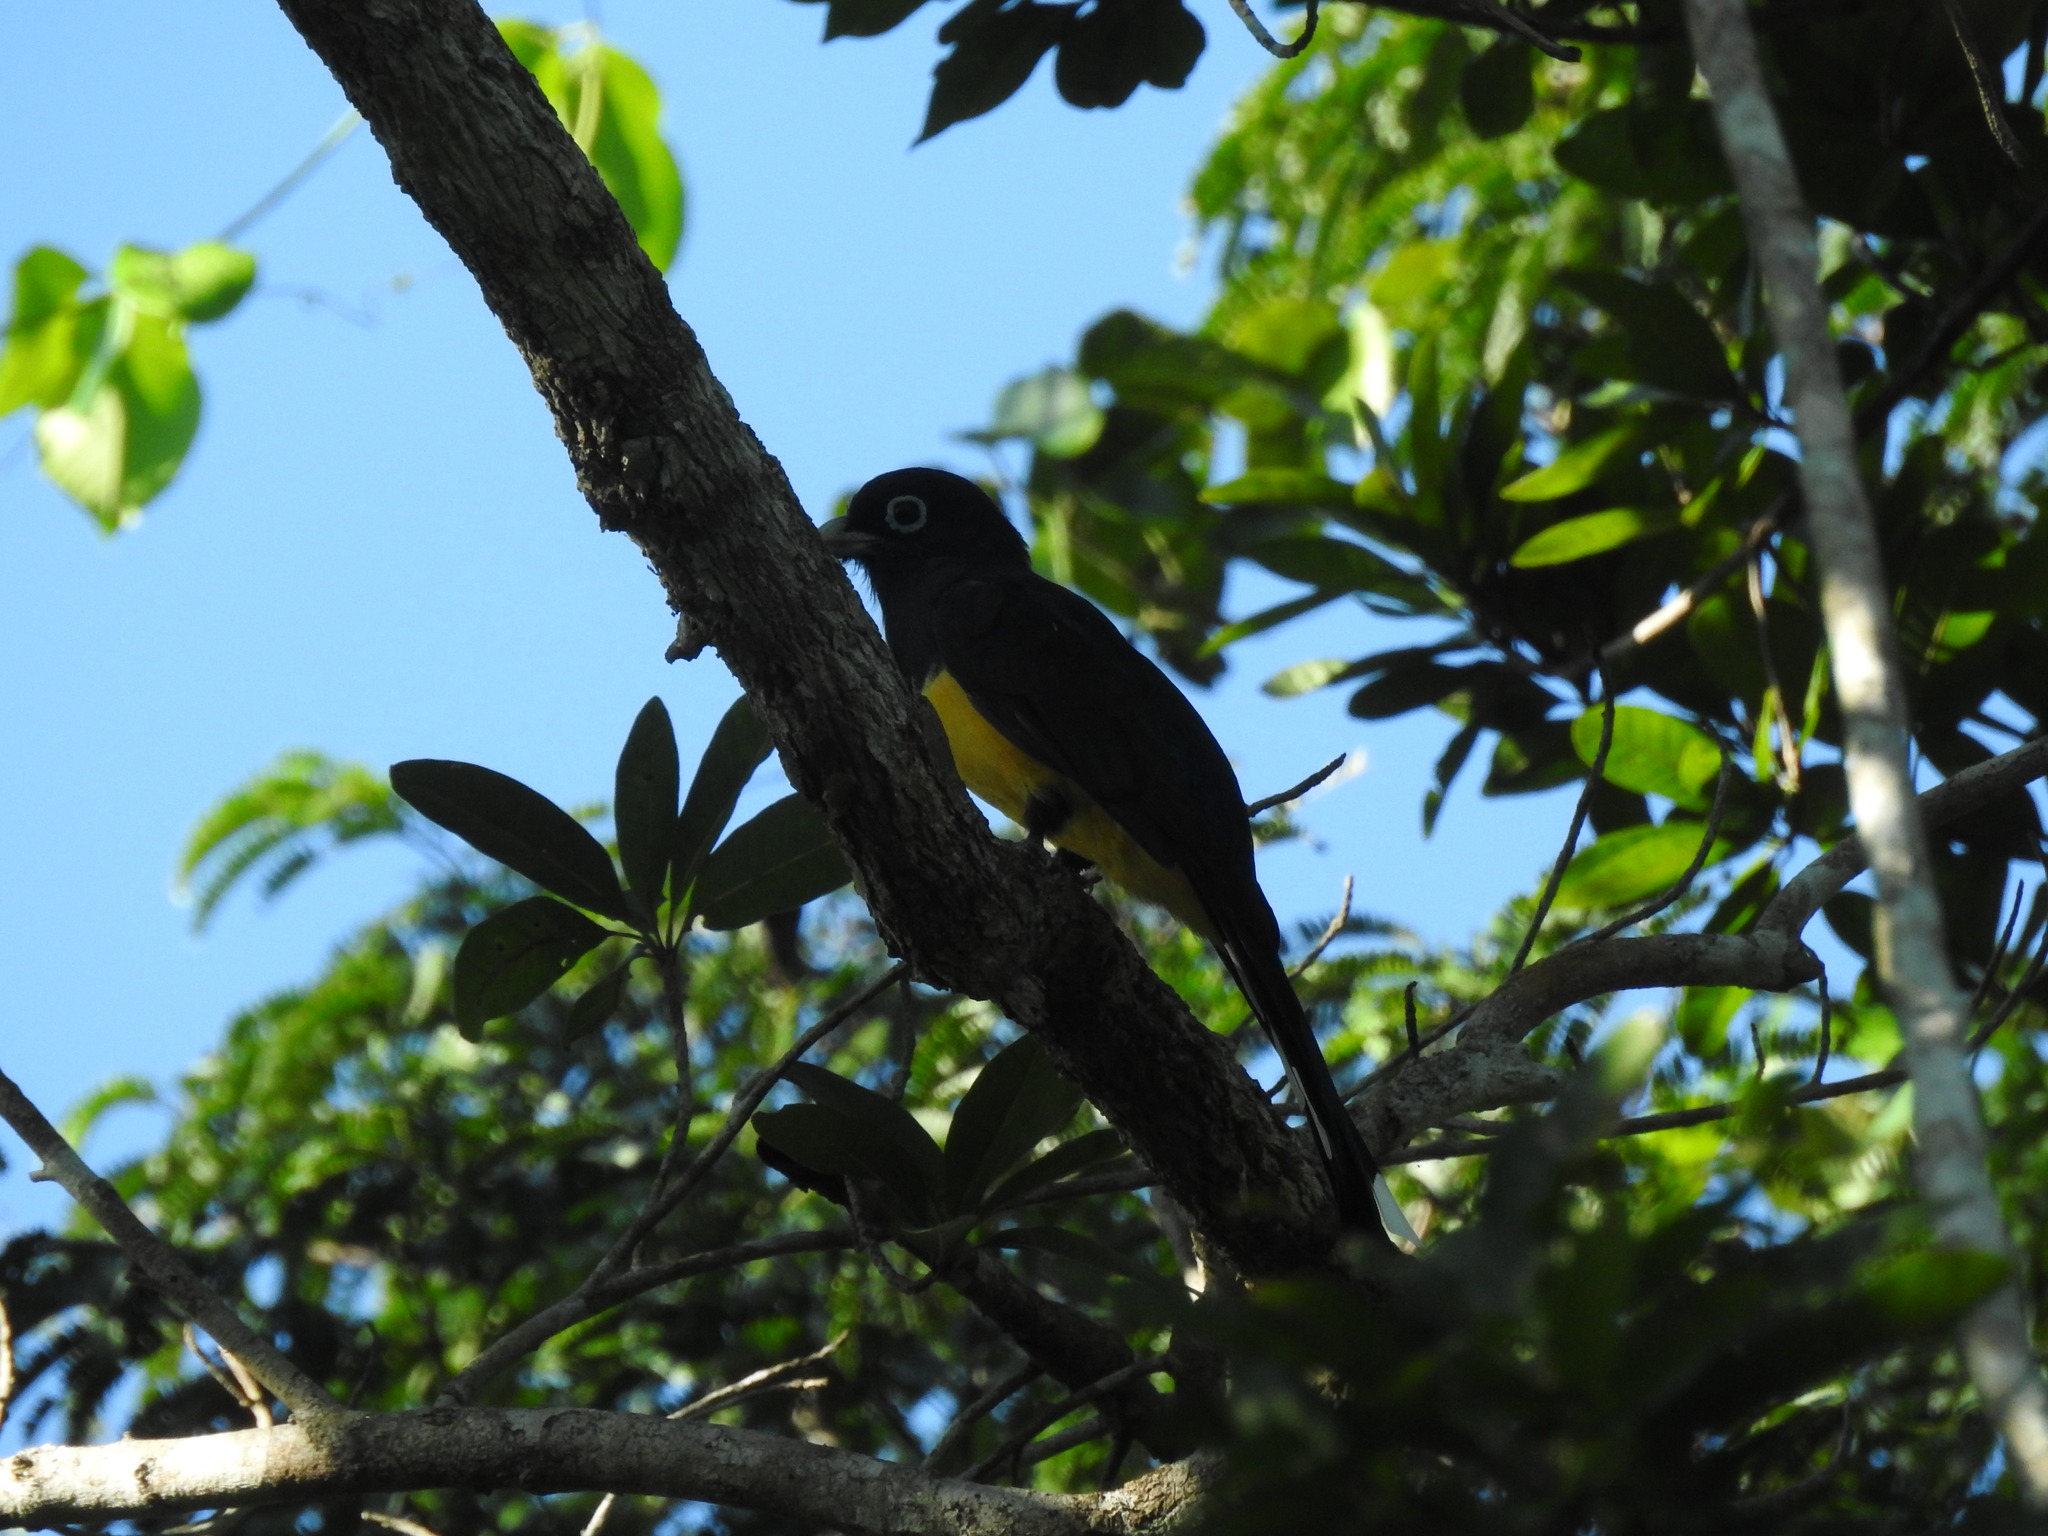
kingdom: Animalia
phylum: Chordata
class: Aves
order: Trogoniformes
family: Trogonidae
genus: Trogon
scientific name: Trogon melanocephalus
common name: Black-headed trogon
